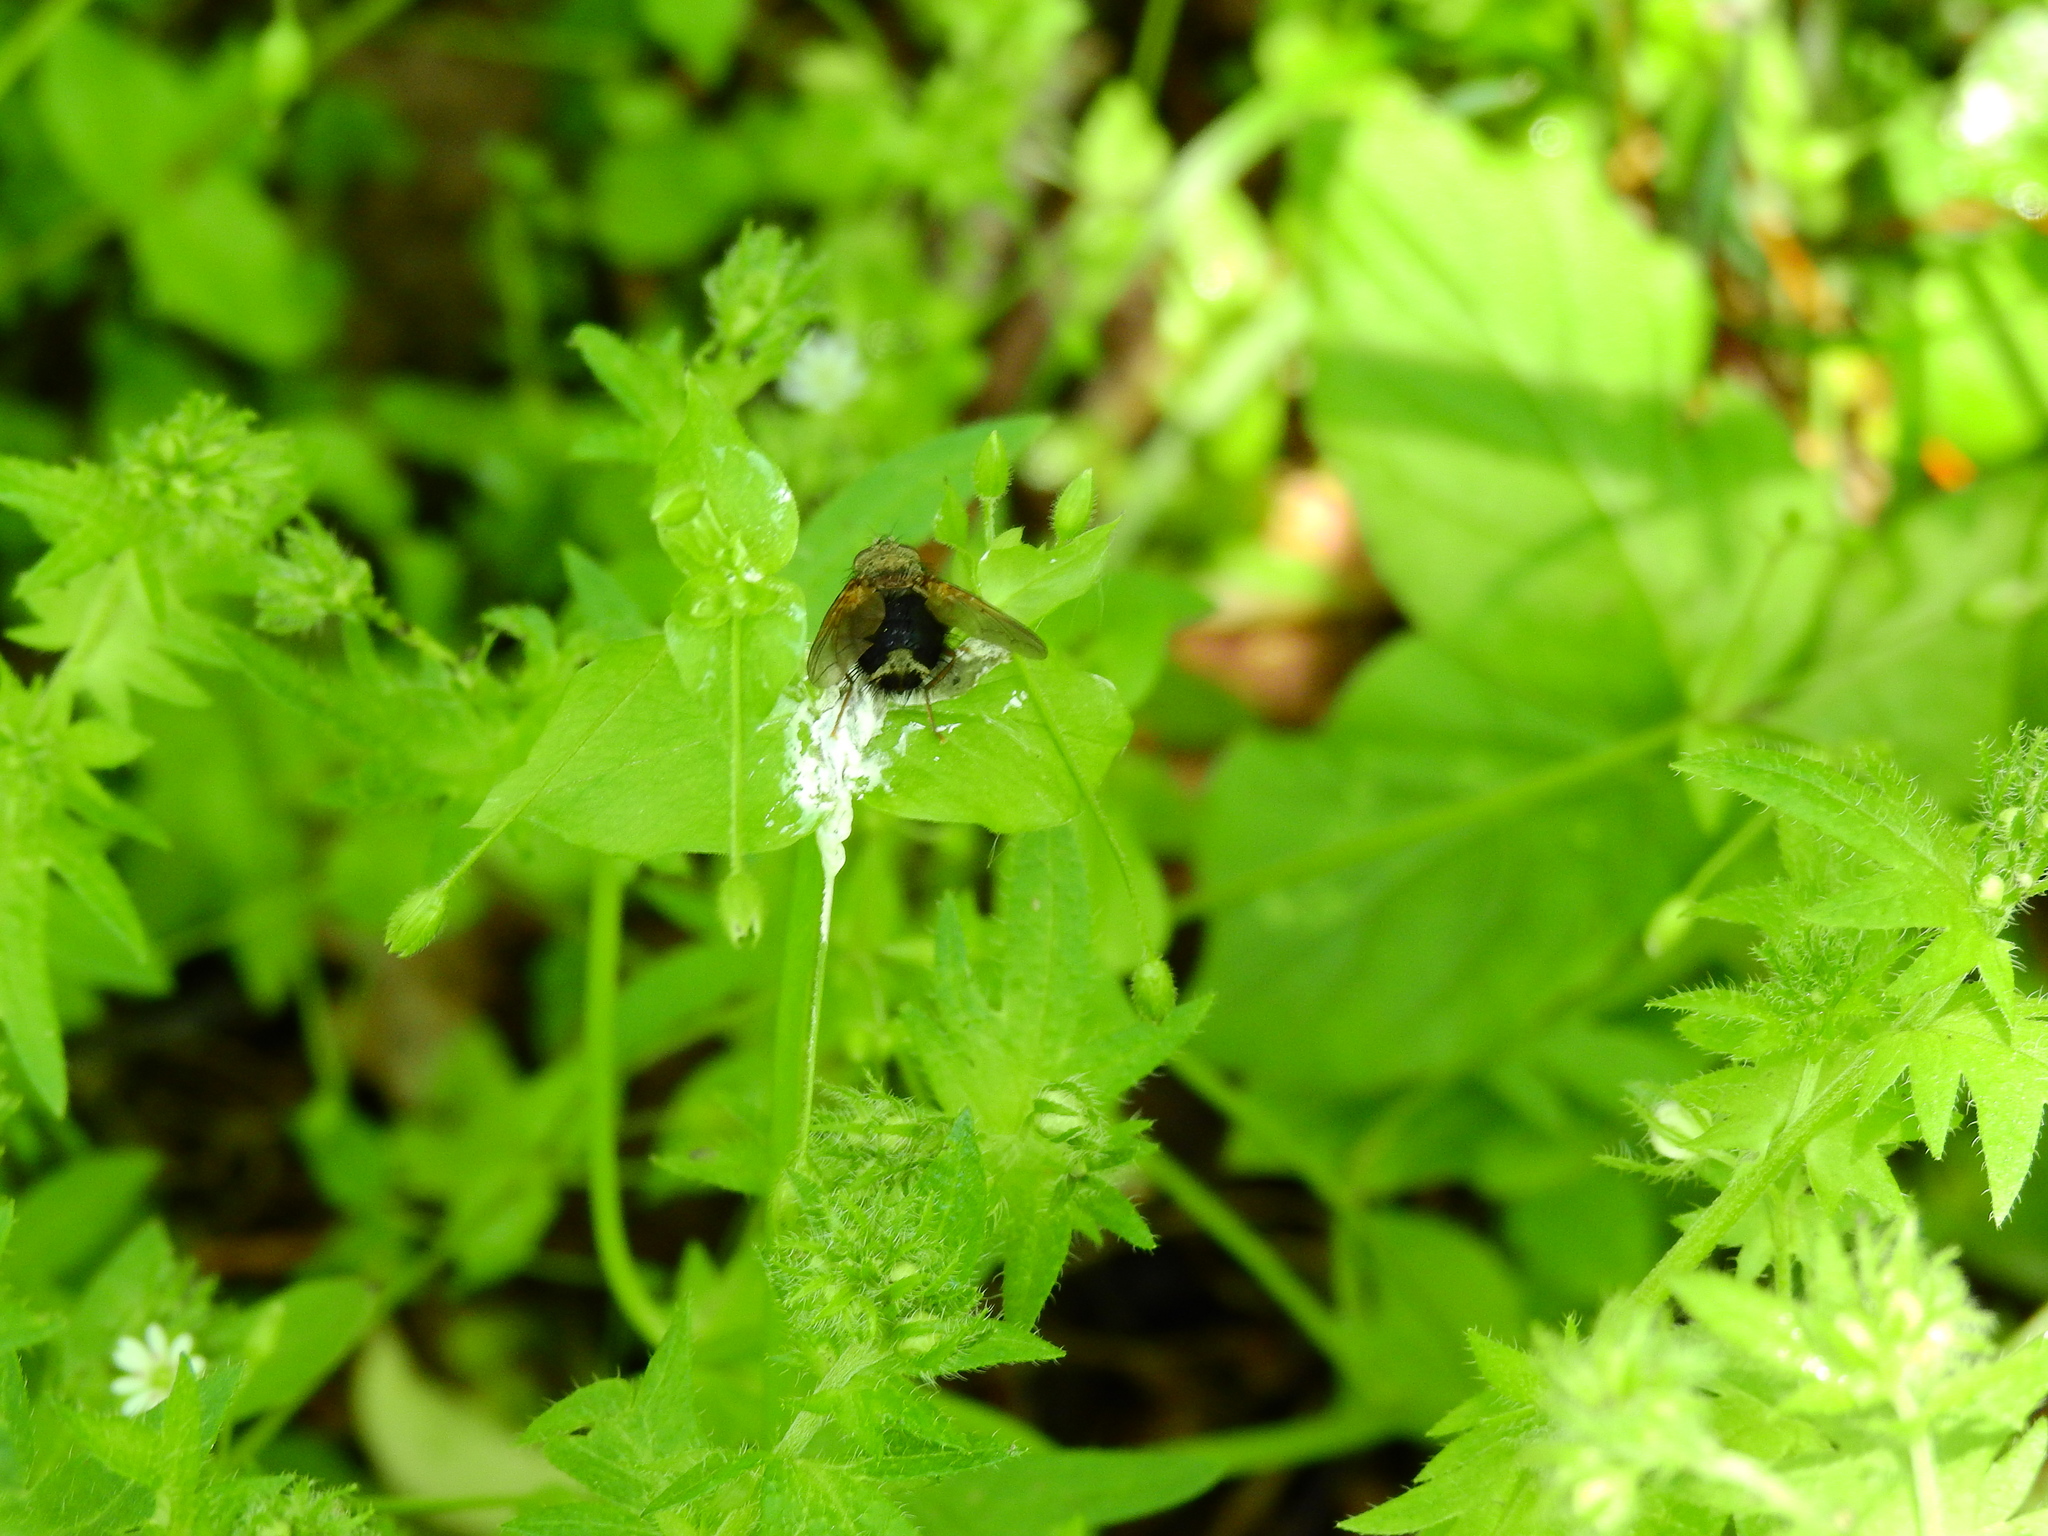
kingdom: Animalia
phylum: Arthropoda
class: Insecta
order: Diptera
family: Tachinidae
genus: Epalpus
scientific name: Epalpus signifer
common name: Early tachinid fly
